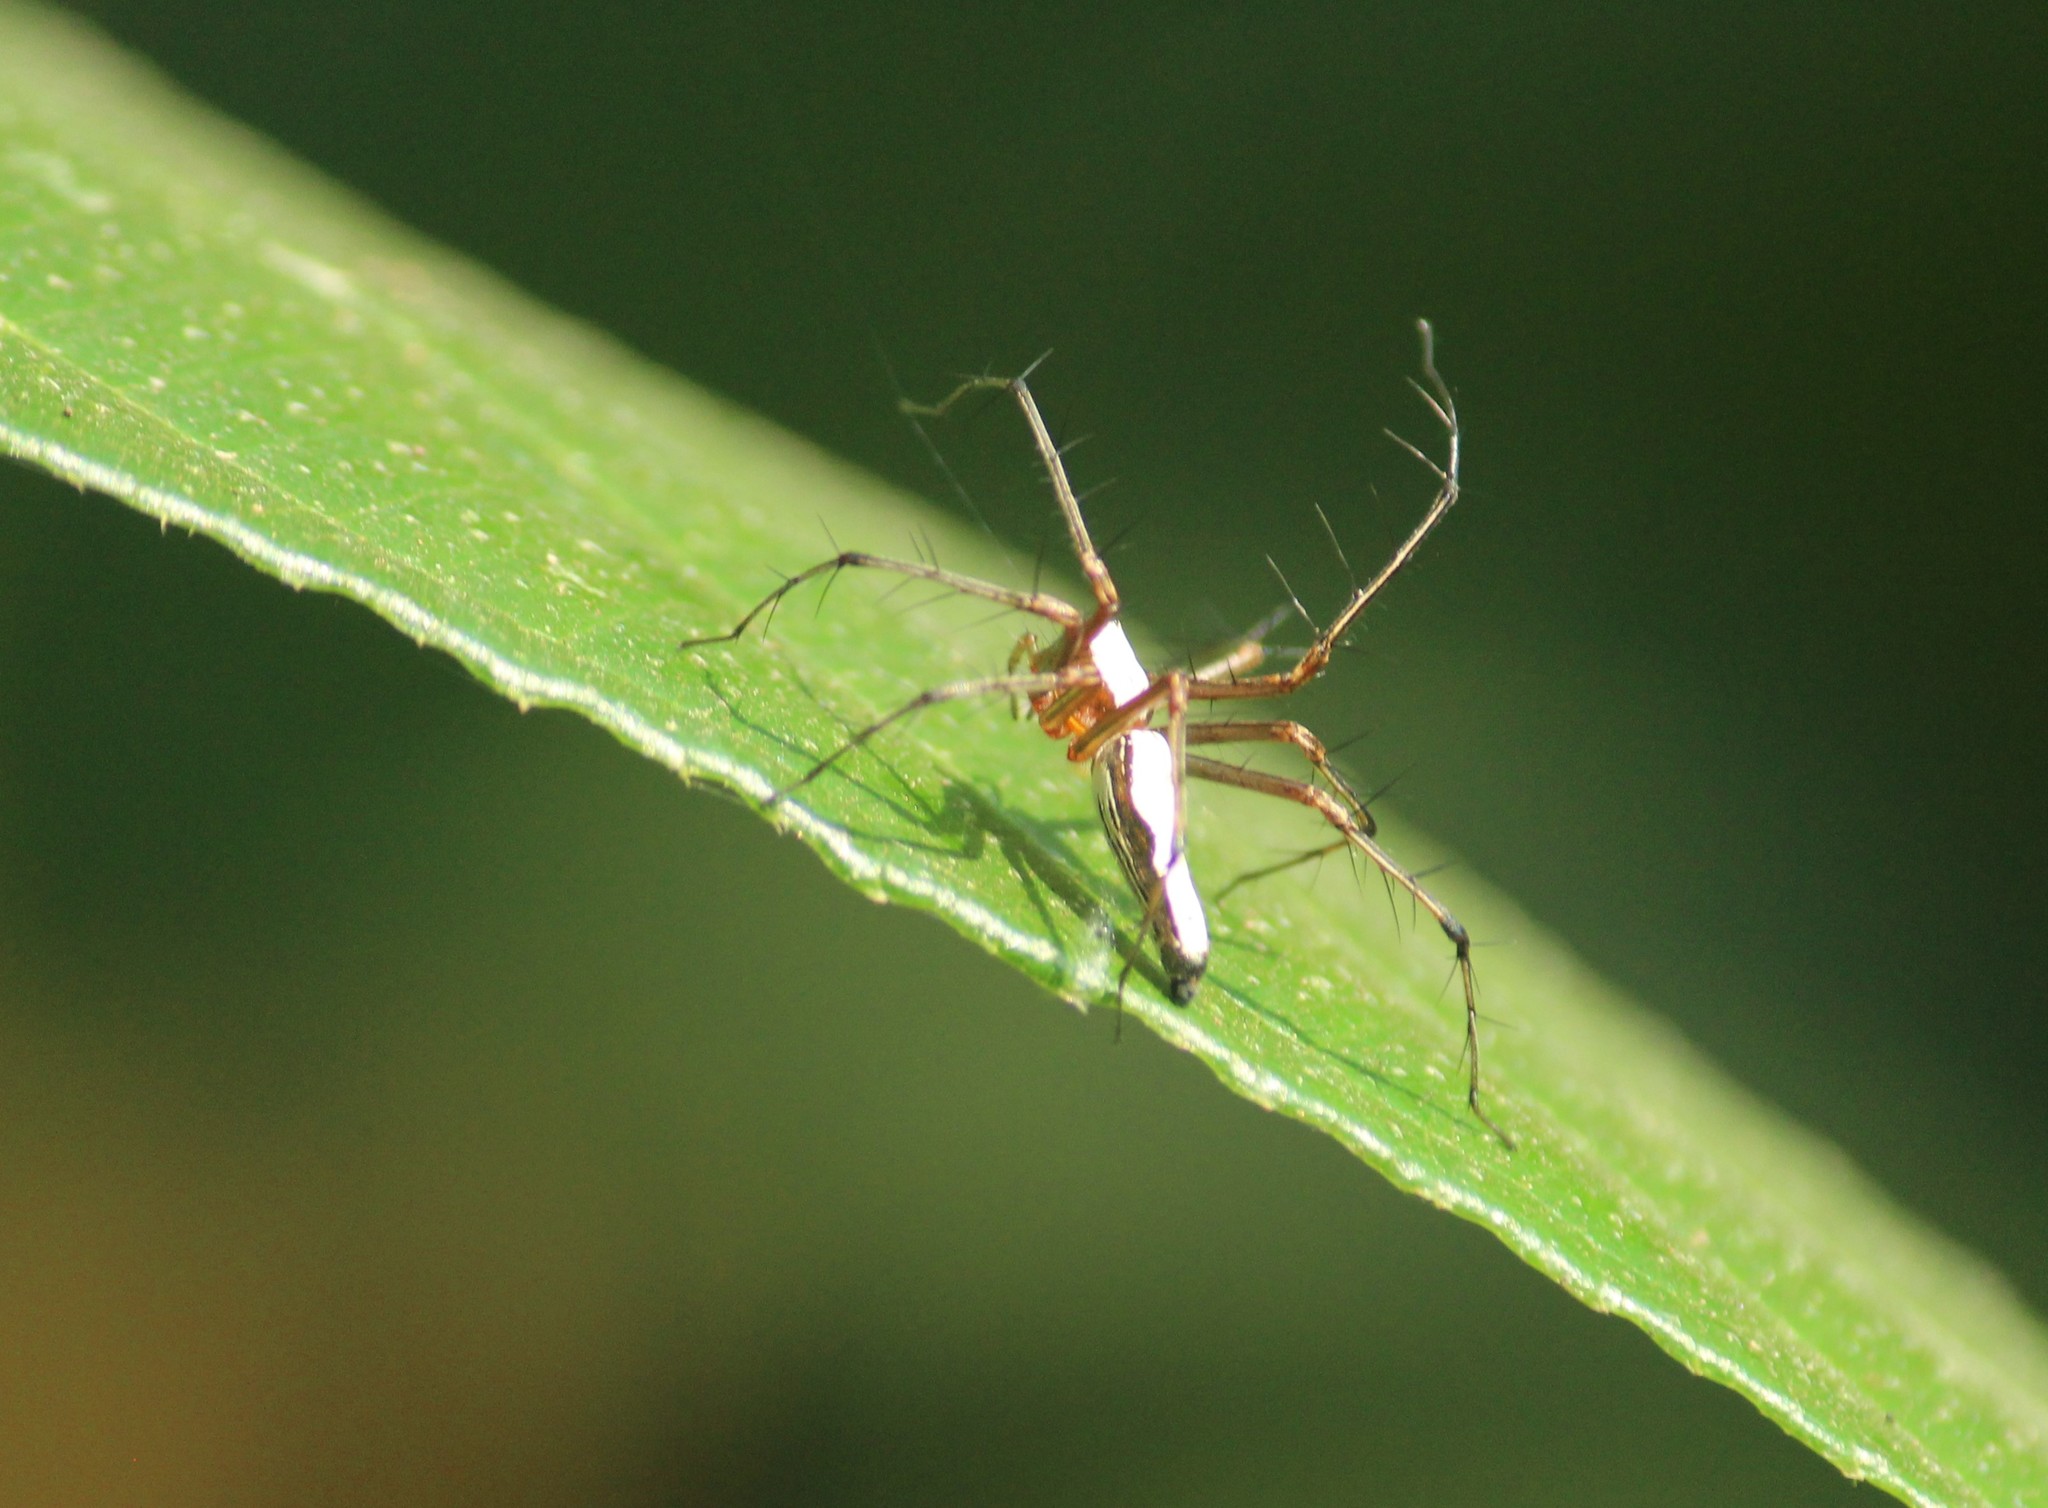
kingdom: Animalia
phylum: Arthropoda
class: Arachnida
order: Araneae
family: Oxyopidae
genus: Oxyopes
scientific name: Oxyopes shweta
